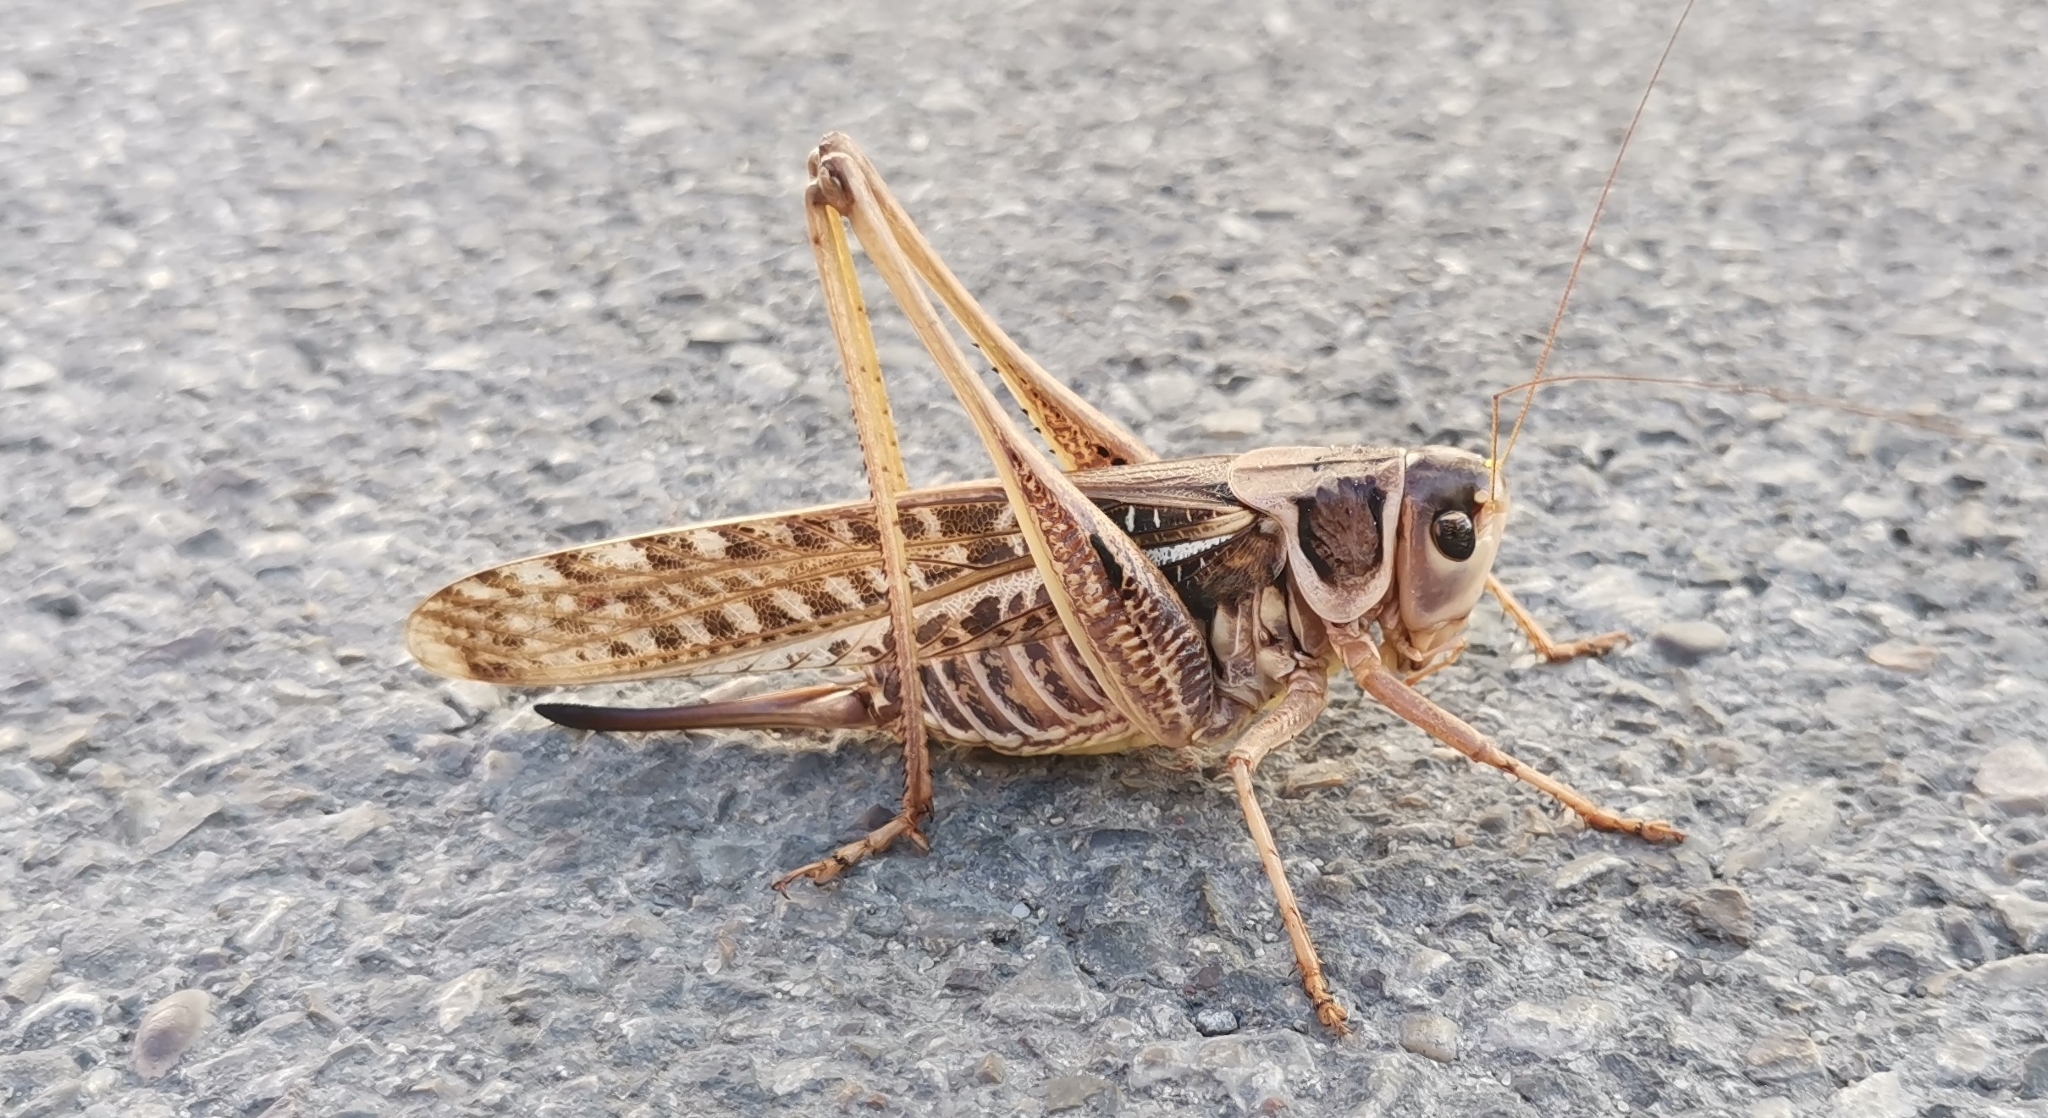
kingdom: Animalia
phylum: Arthropoda
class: Insecta
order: Orthoptera
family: Tettigoniidae
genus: Decticus
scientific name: Decticus albifrons
